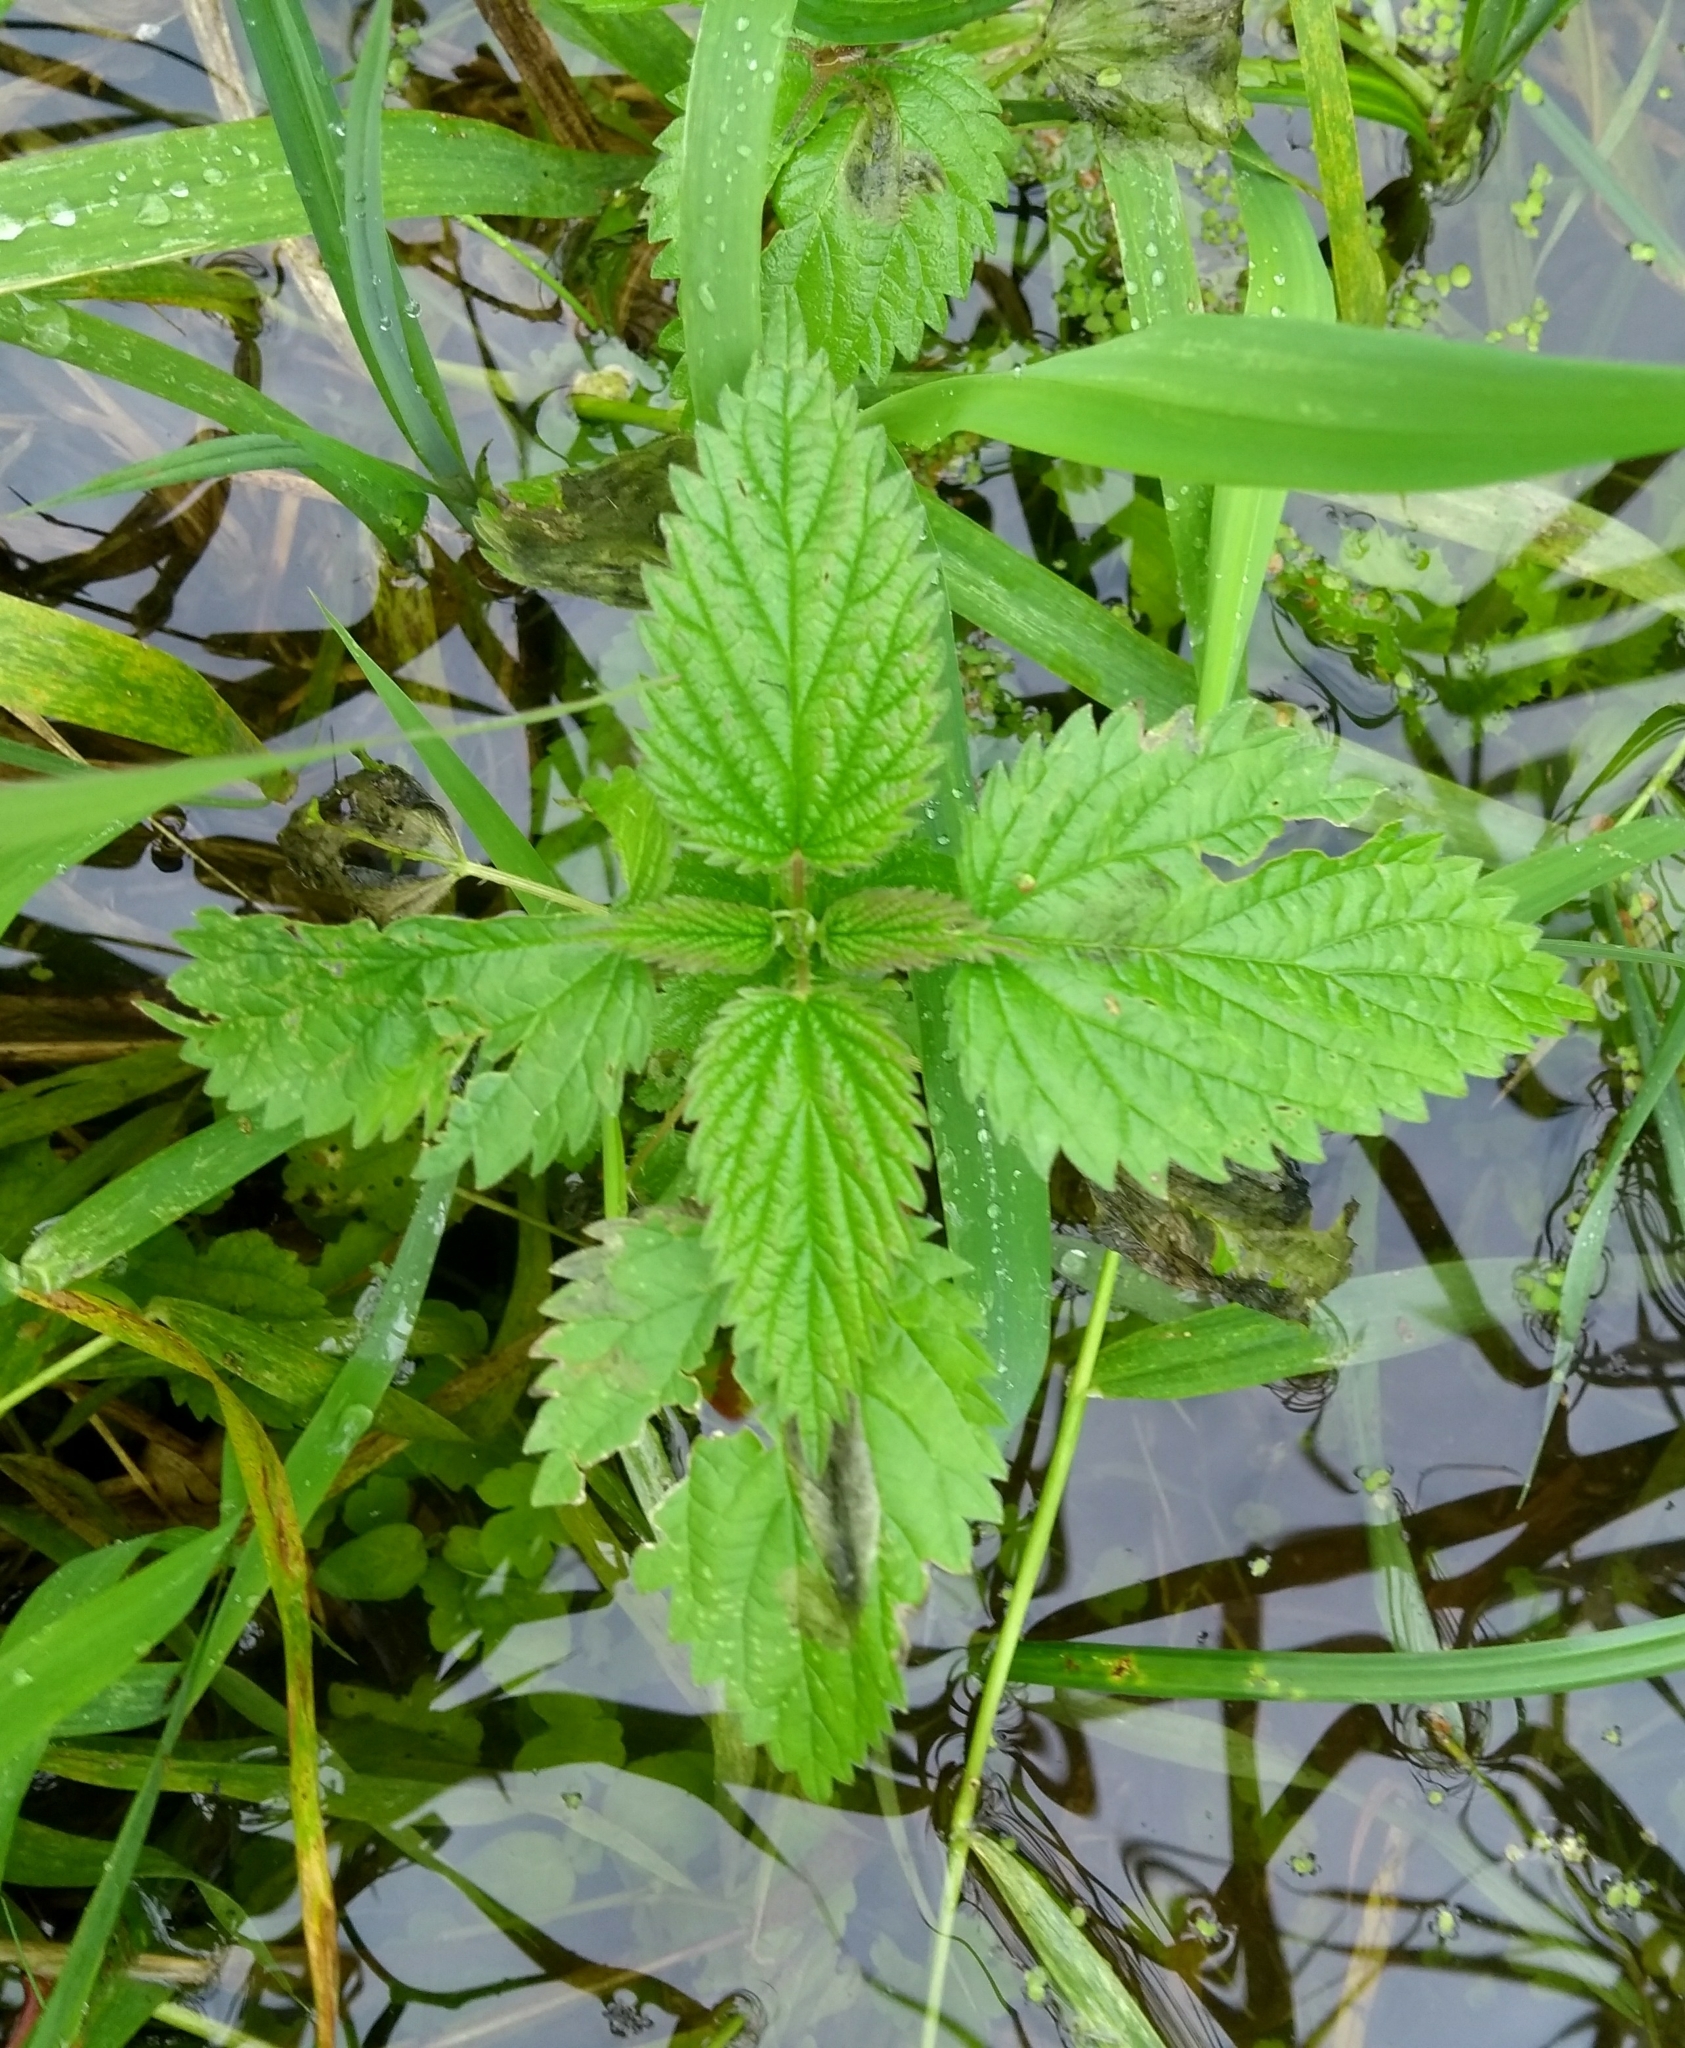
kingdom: Plantae
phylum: Tracheophyta
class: Magnoliopsida
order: Rosales
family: Urticaceae
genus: Urtica
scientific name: Urtica dioica
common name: Common nettle
